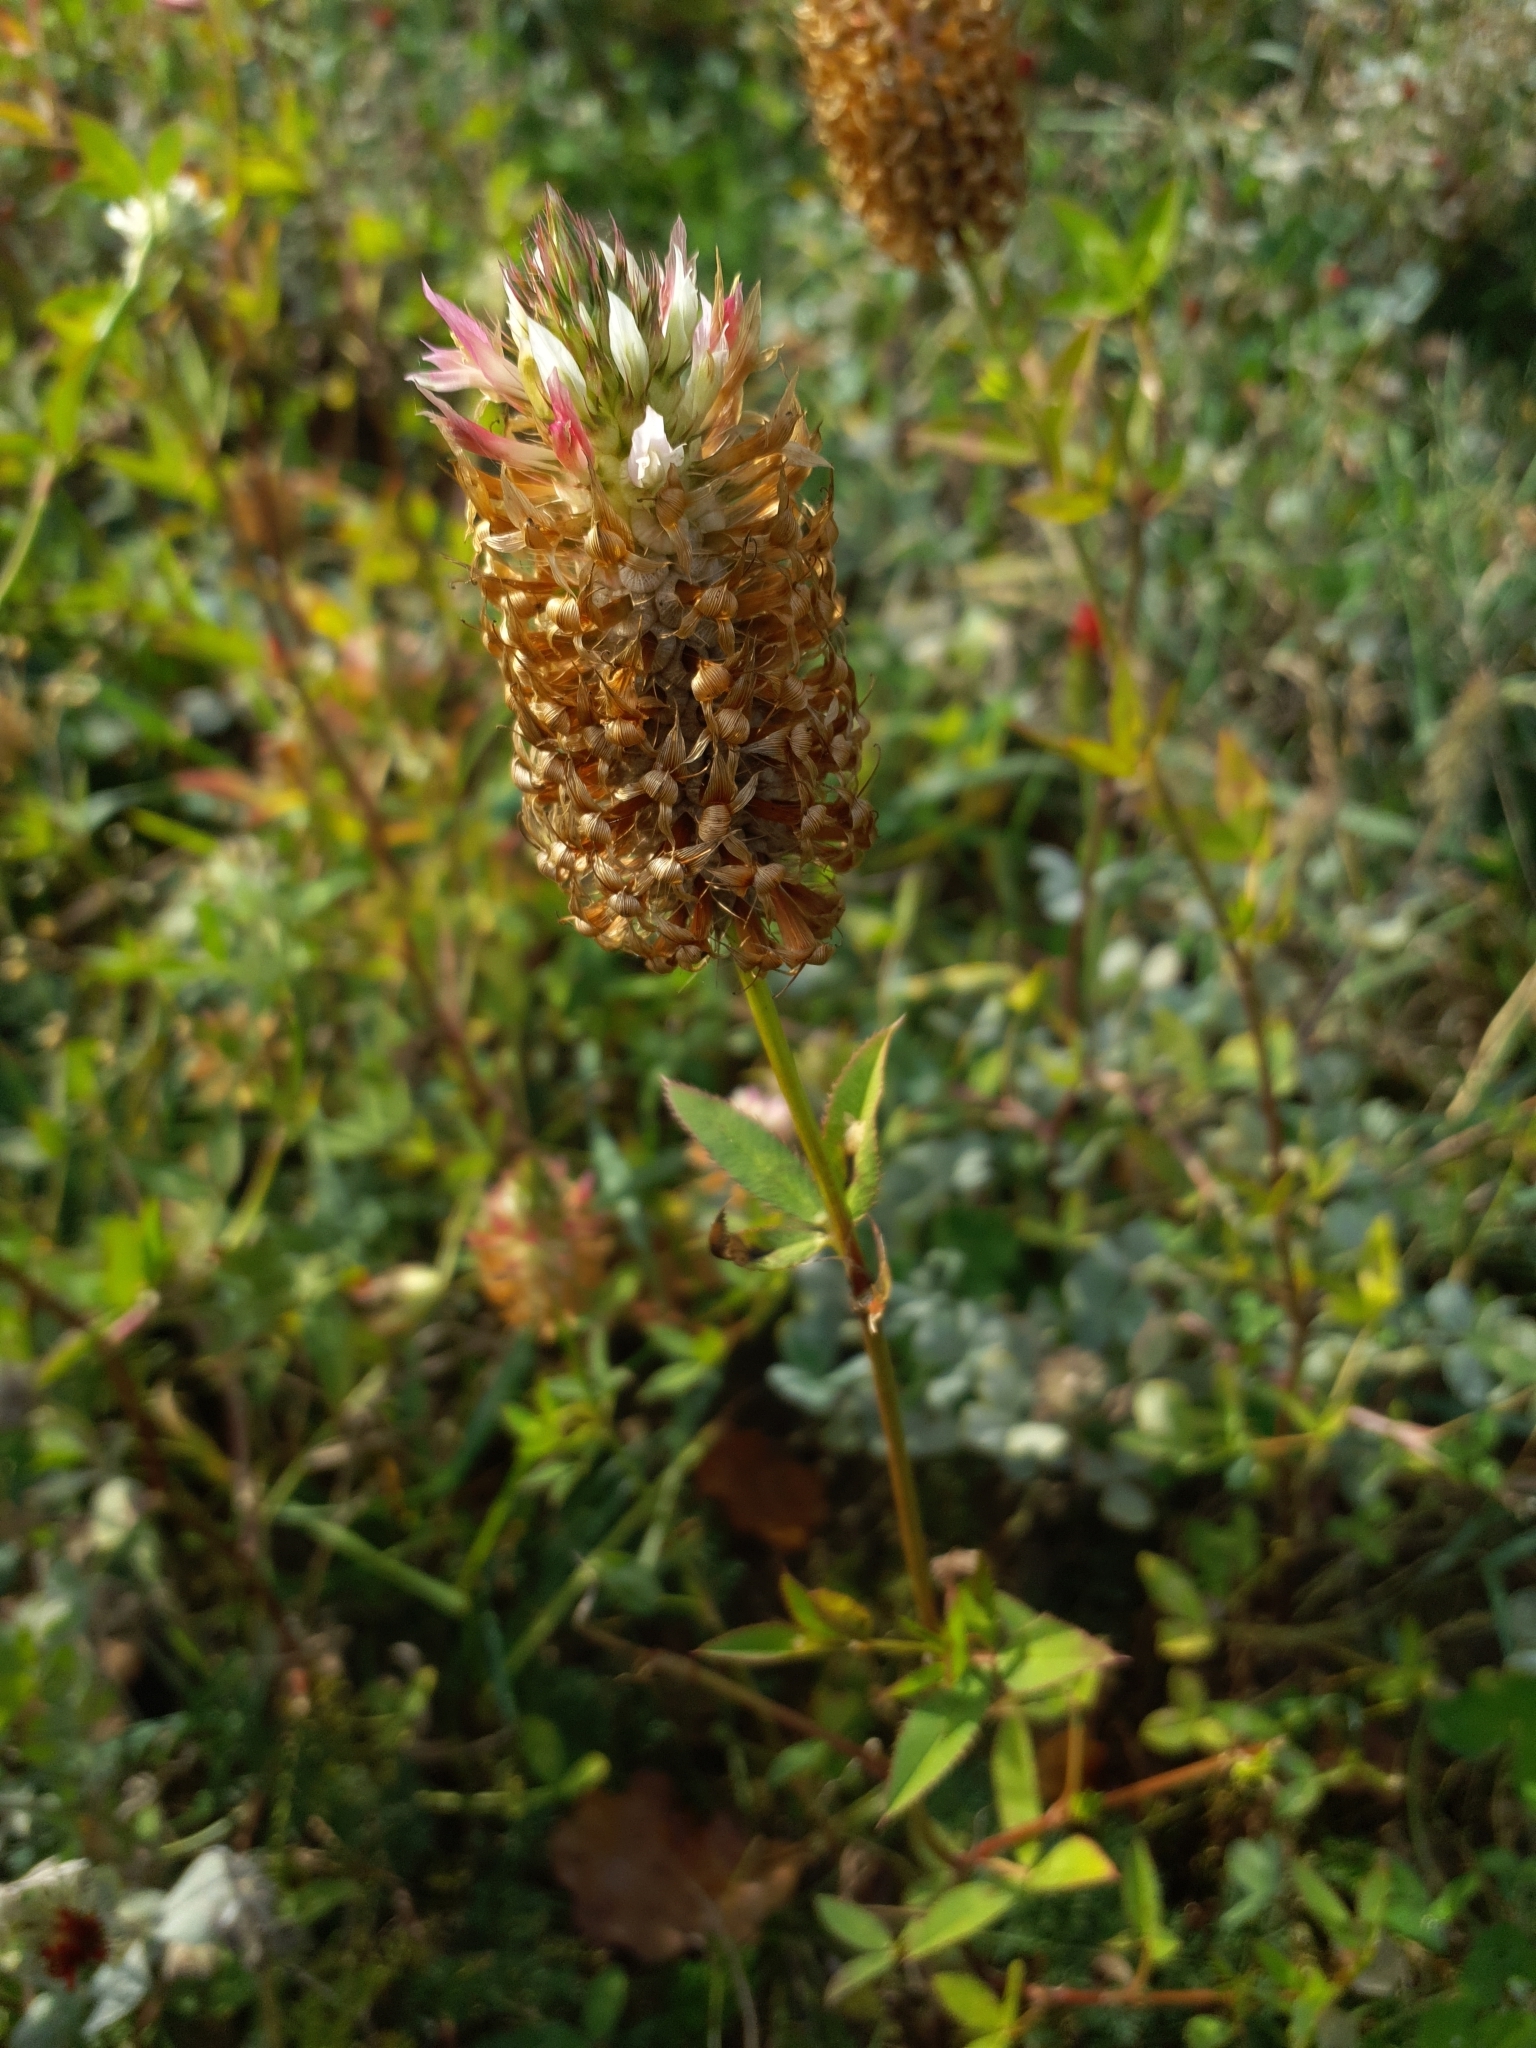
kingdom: Plantae
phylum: Tracheophyta
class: Magnoliopsida
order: Fabales
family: Fabaceae
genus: Trifolium
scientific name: Trifolium vesiculosum
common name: Arrowleaf clover
